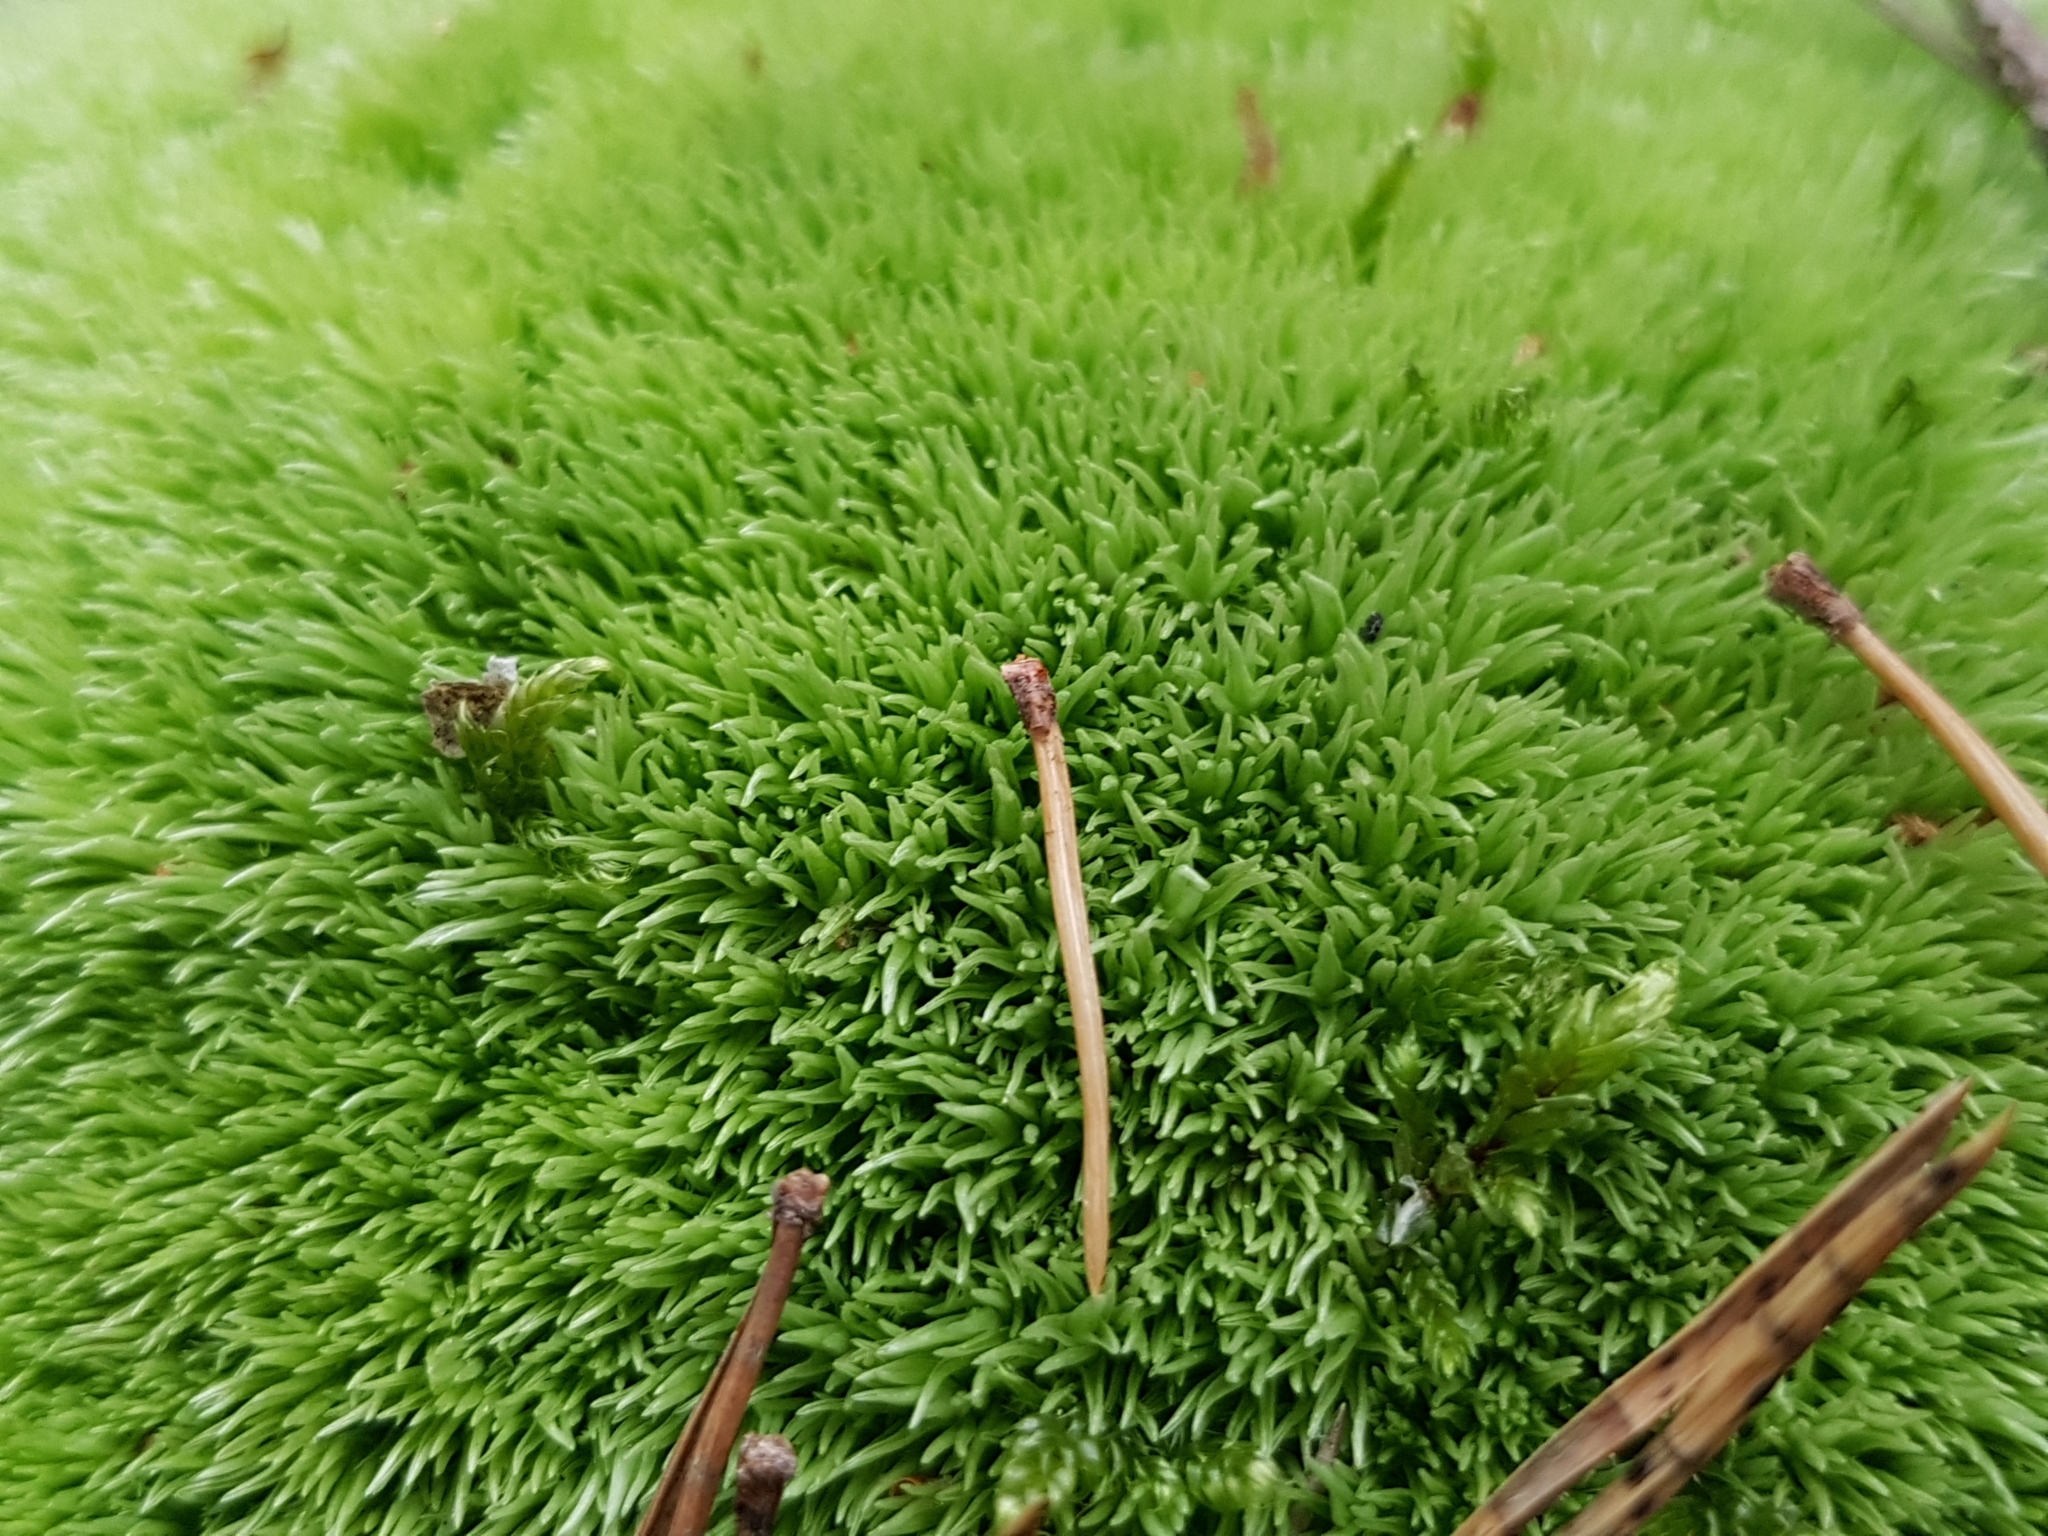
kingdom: Plantae
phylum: Bryophyta
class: Bryopsida
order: Dicranales
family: Leucobryaceae
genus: Leucobryum
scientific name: Leucobryum glaucum
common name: Large white-moss
